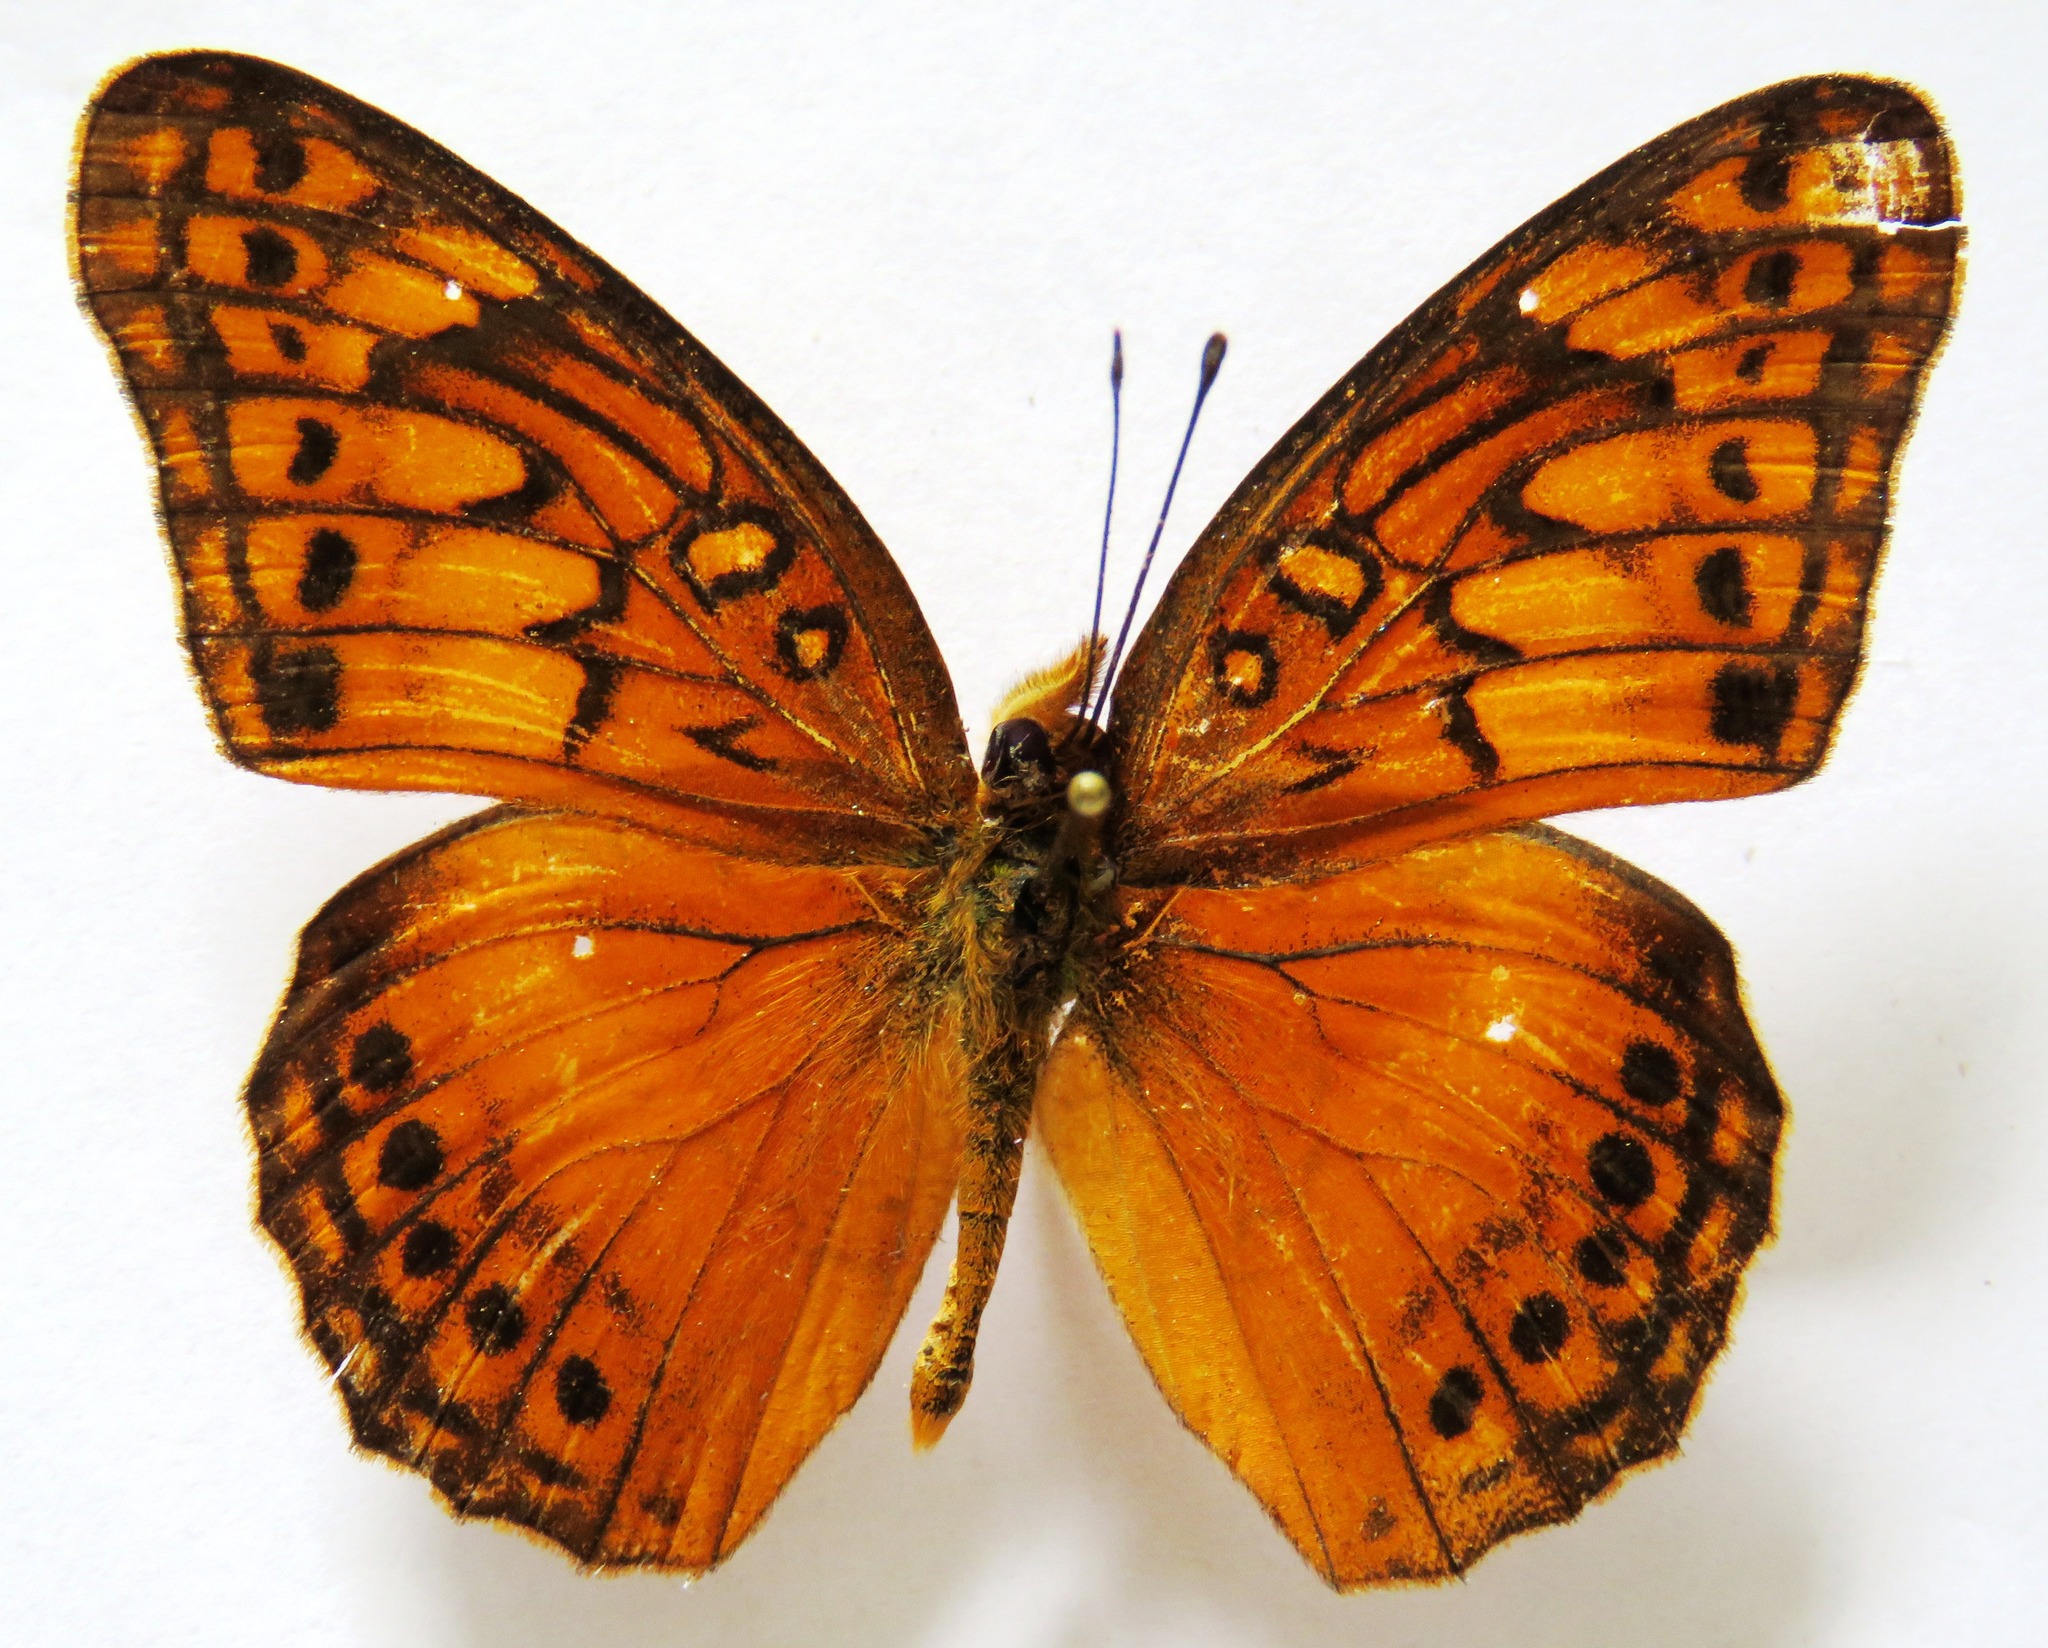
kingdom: Animalia
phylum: Arthropoda
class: Insecta
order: Lepidoptera
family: Nymphalidae
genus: Euptoieta
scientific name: Euptoieta hegesia
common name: Mexican fritillary
